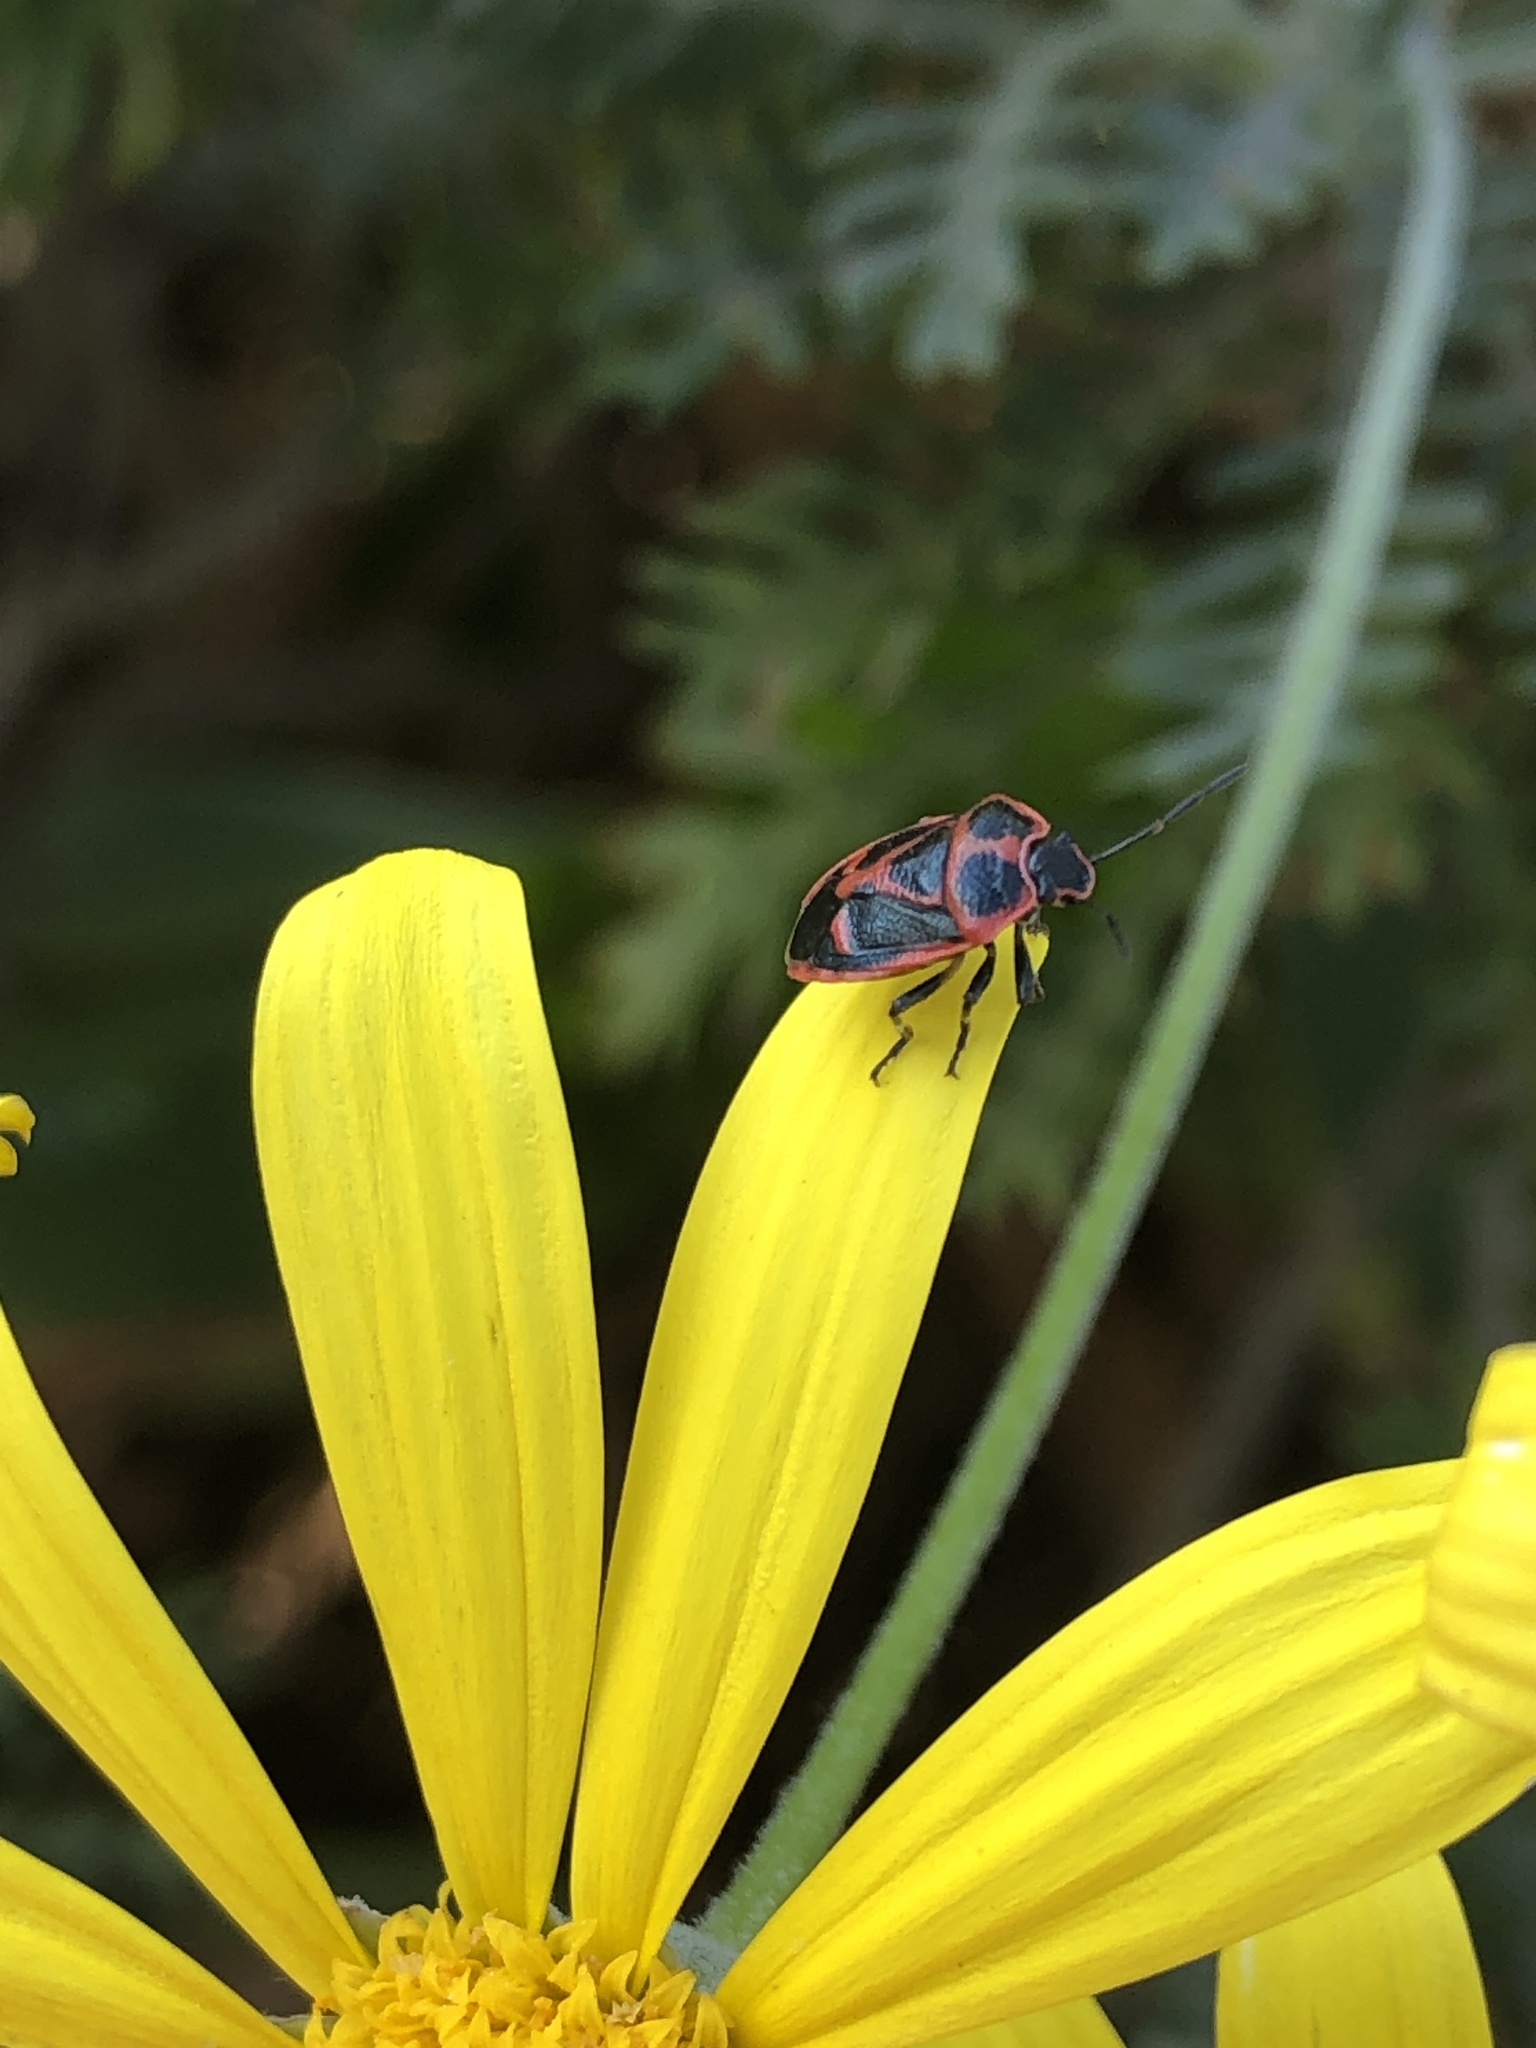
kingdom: Animalia
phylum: Arthropoda
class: Insecta
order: Hemiptera
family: Pentatomidae
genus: Eurydema
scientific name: Eurydema gebleri
